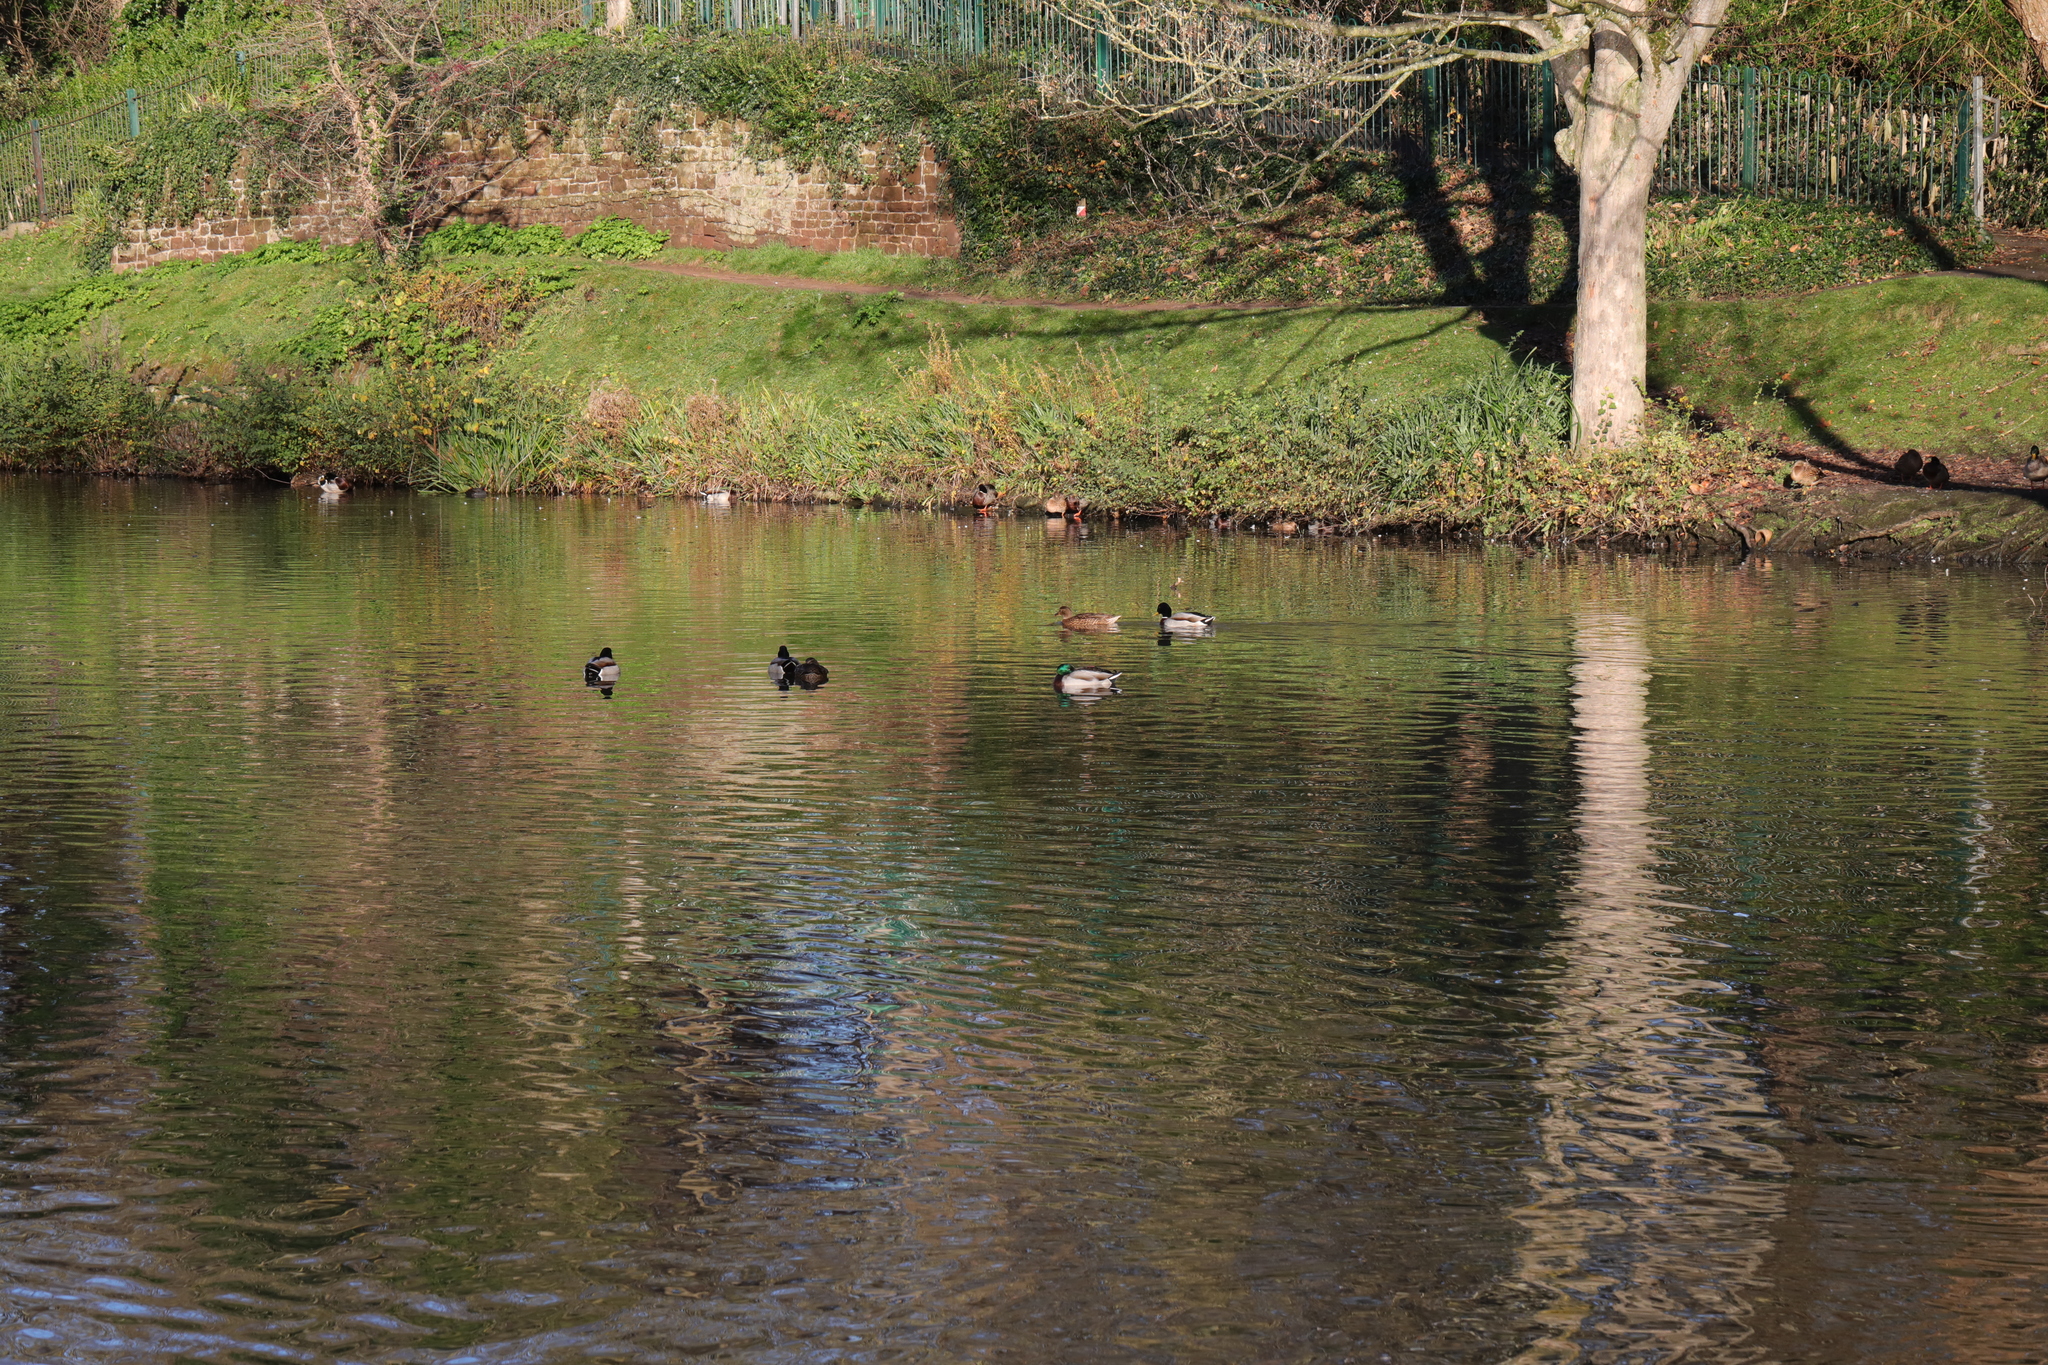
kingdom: Animalia
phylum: Chordata
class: Aves
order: Anseriformes
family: Anatidae
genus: Anas
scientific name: Anas platyrhynchos
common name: Mallard
